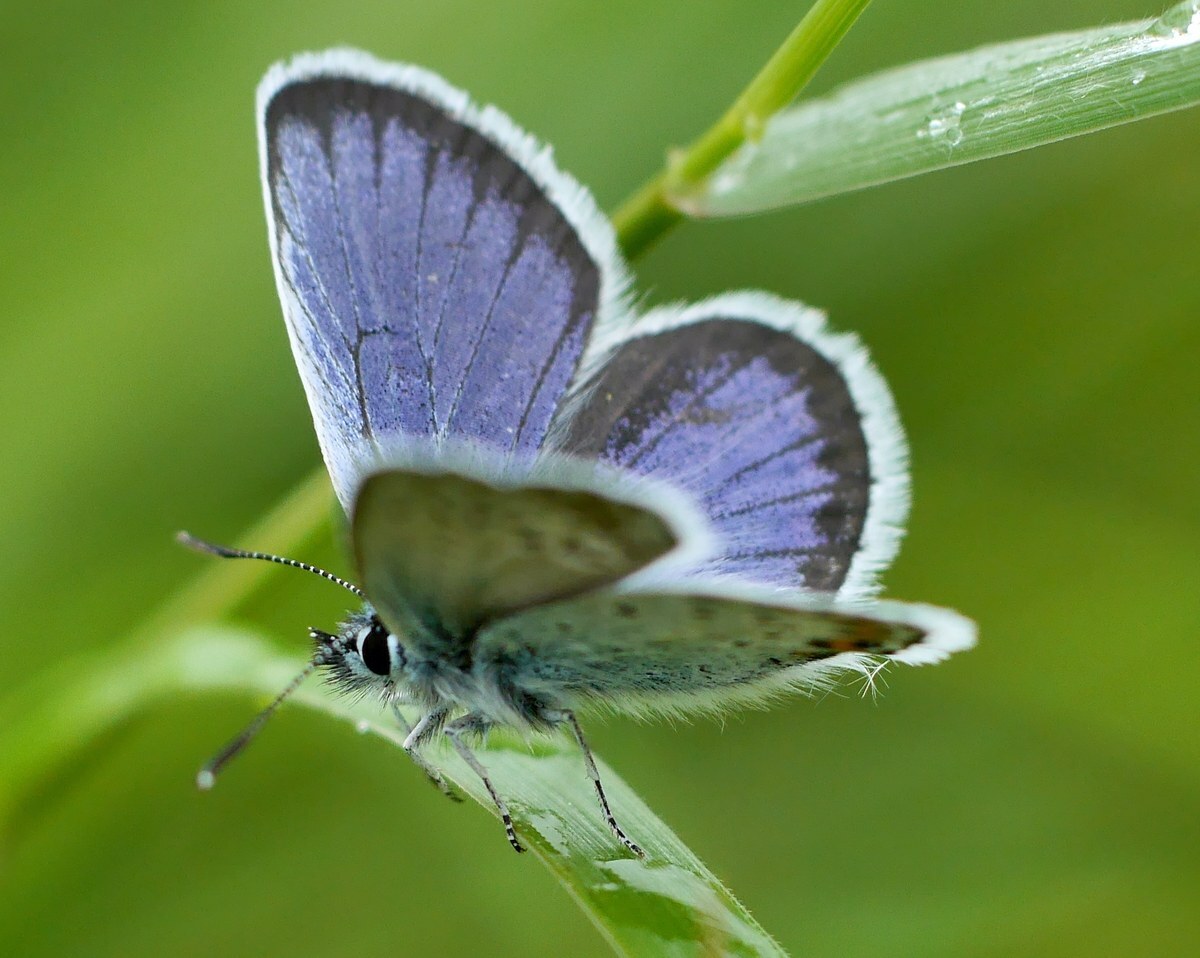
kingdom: Animalia
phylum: Arthropoda
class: Insecta
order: Lepidoptera
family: Lycaenidae
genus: Plebejus
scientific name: Plebejus argus
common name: Silver-studded blue
